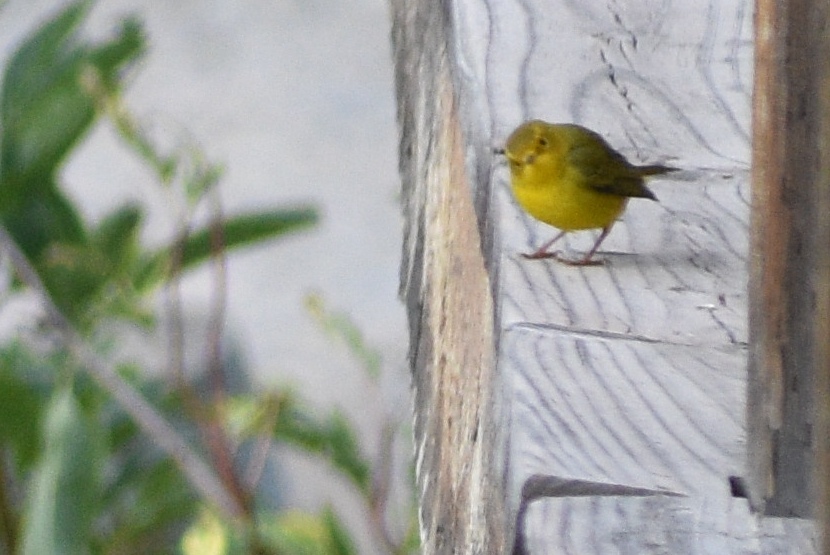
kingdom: Animalia
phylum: Chordata
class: Aves
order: Passeriformes
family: Parulidae
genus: Cardellina
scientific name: Cardellina pusilla
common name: Wilson's warbler
